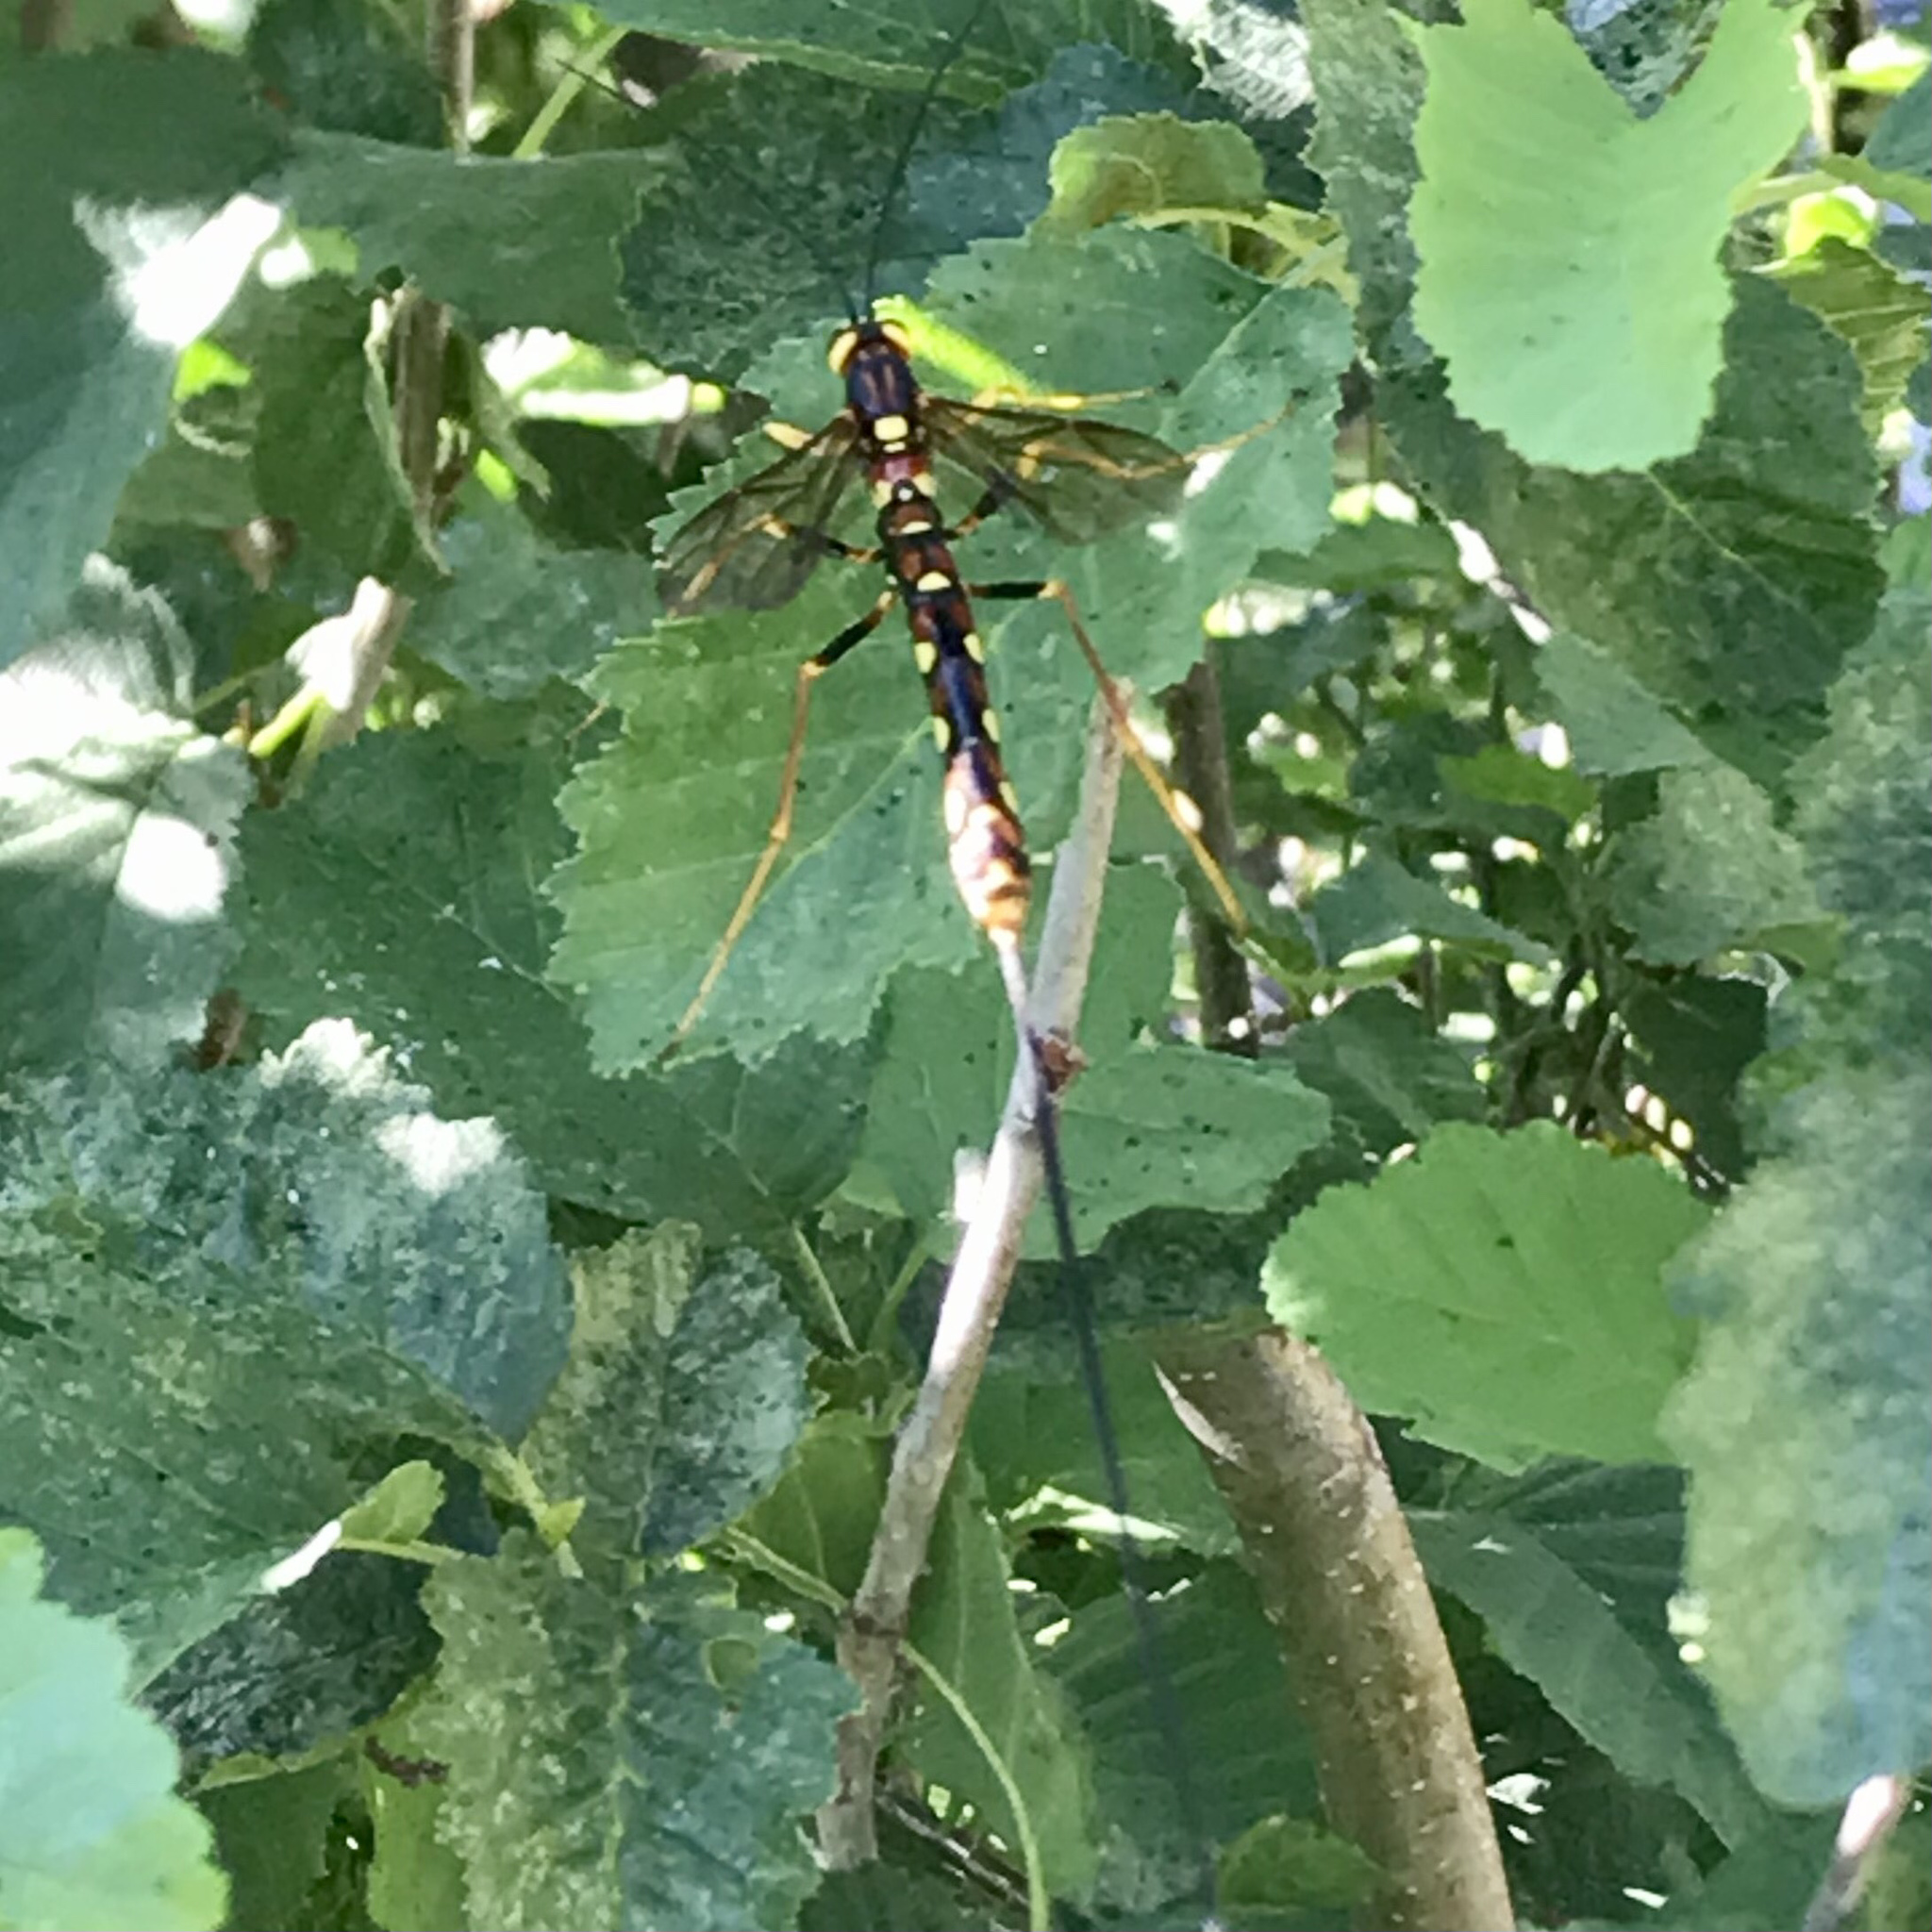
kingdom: Animalia
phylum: Arthropoda
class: Insecta
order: Hymenoptera
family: Ichneumonidae
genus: Megarhyssa
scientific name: Megarhyssa nortoni
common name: Norton's giant ichneumonid wasp
